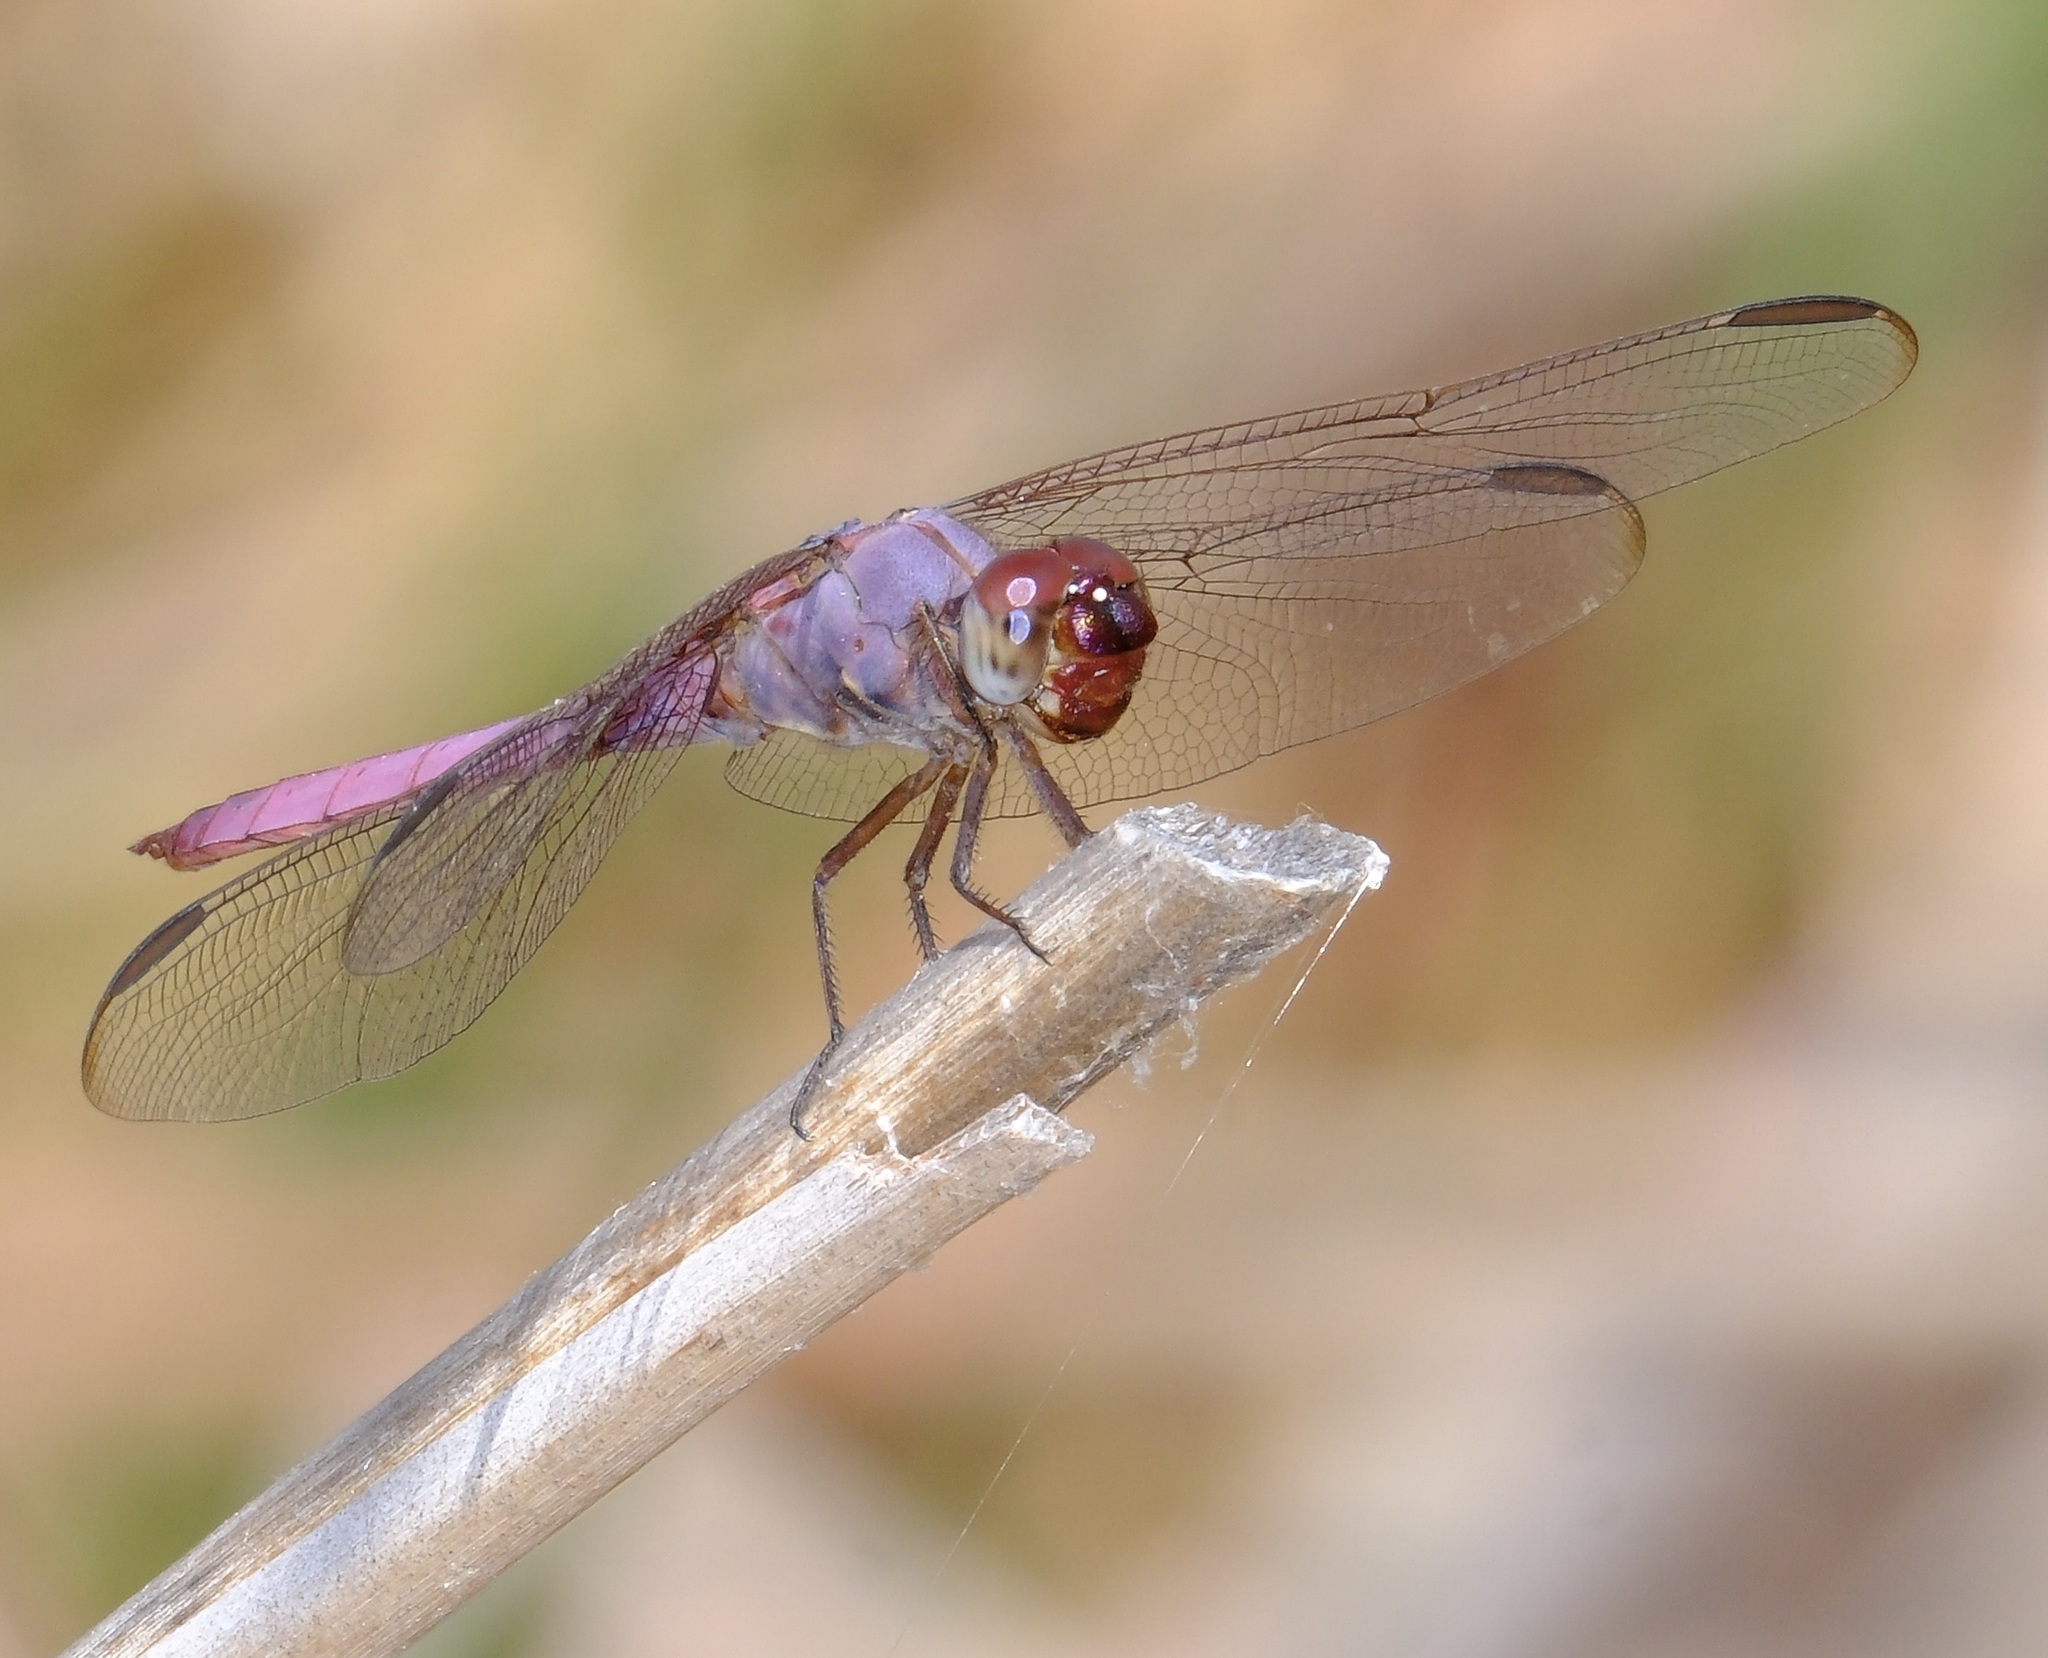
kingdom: Animalia
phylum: Arthropoda
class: Insecta
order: Odonata
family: Libellulidae
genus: Orthemis
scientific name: Orthemis ferruginea
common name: Roseate skimmer
